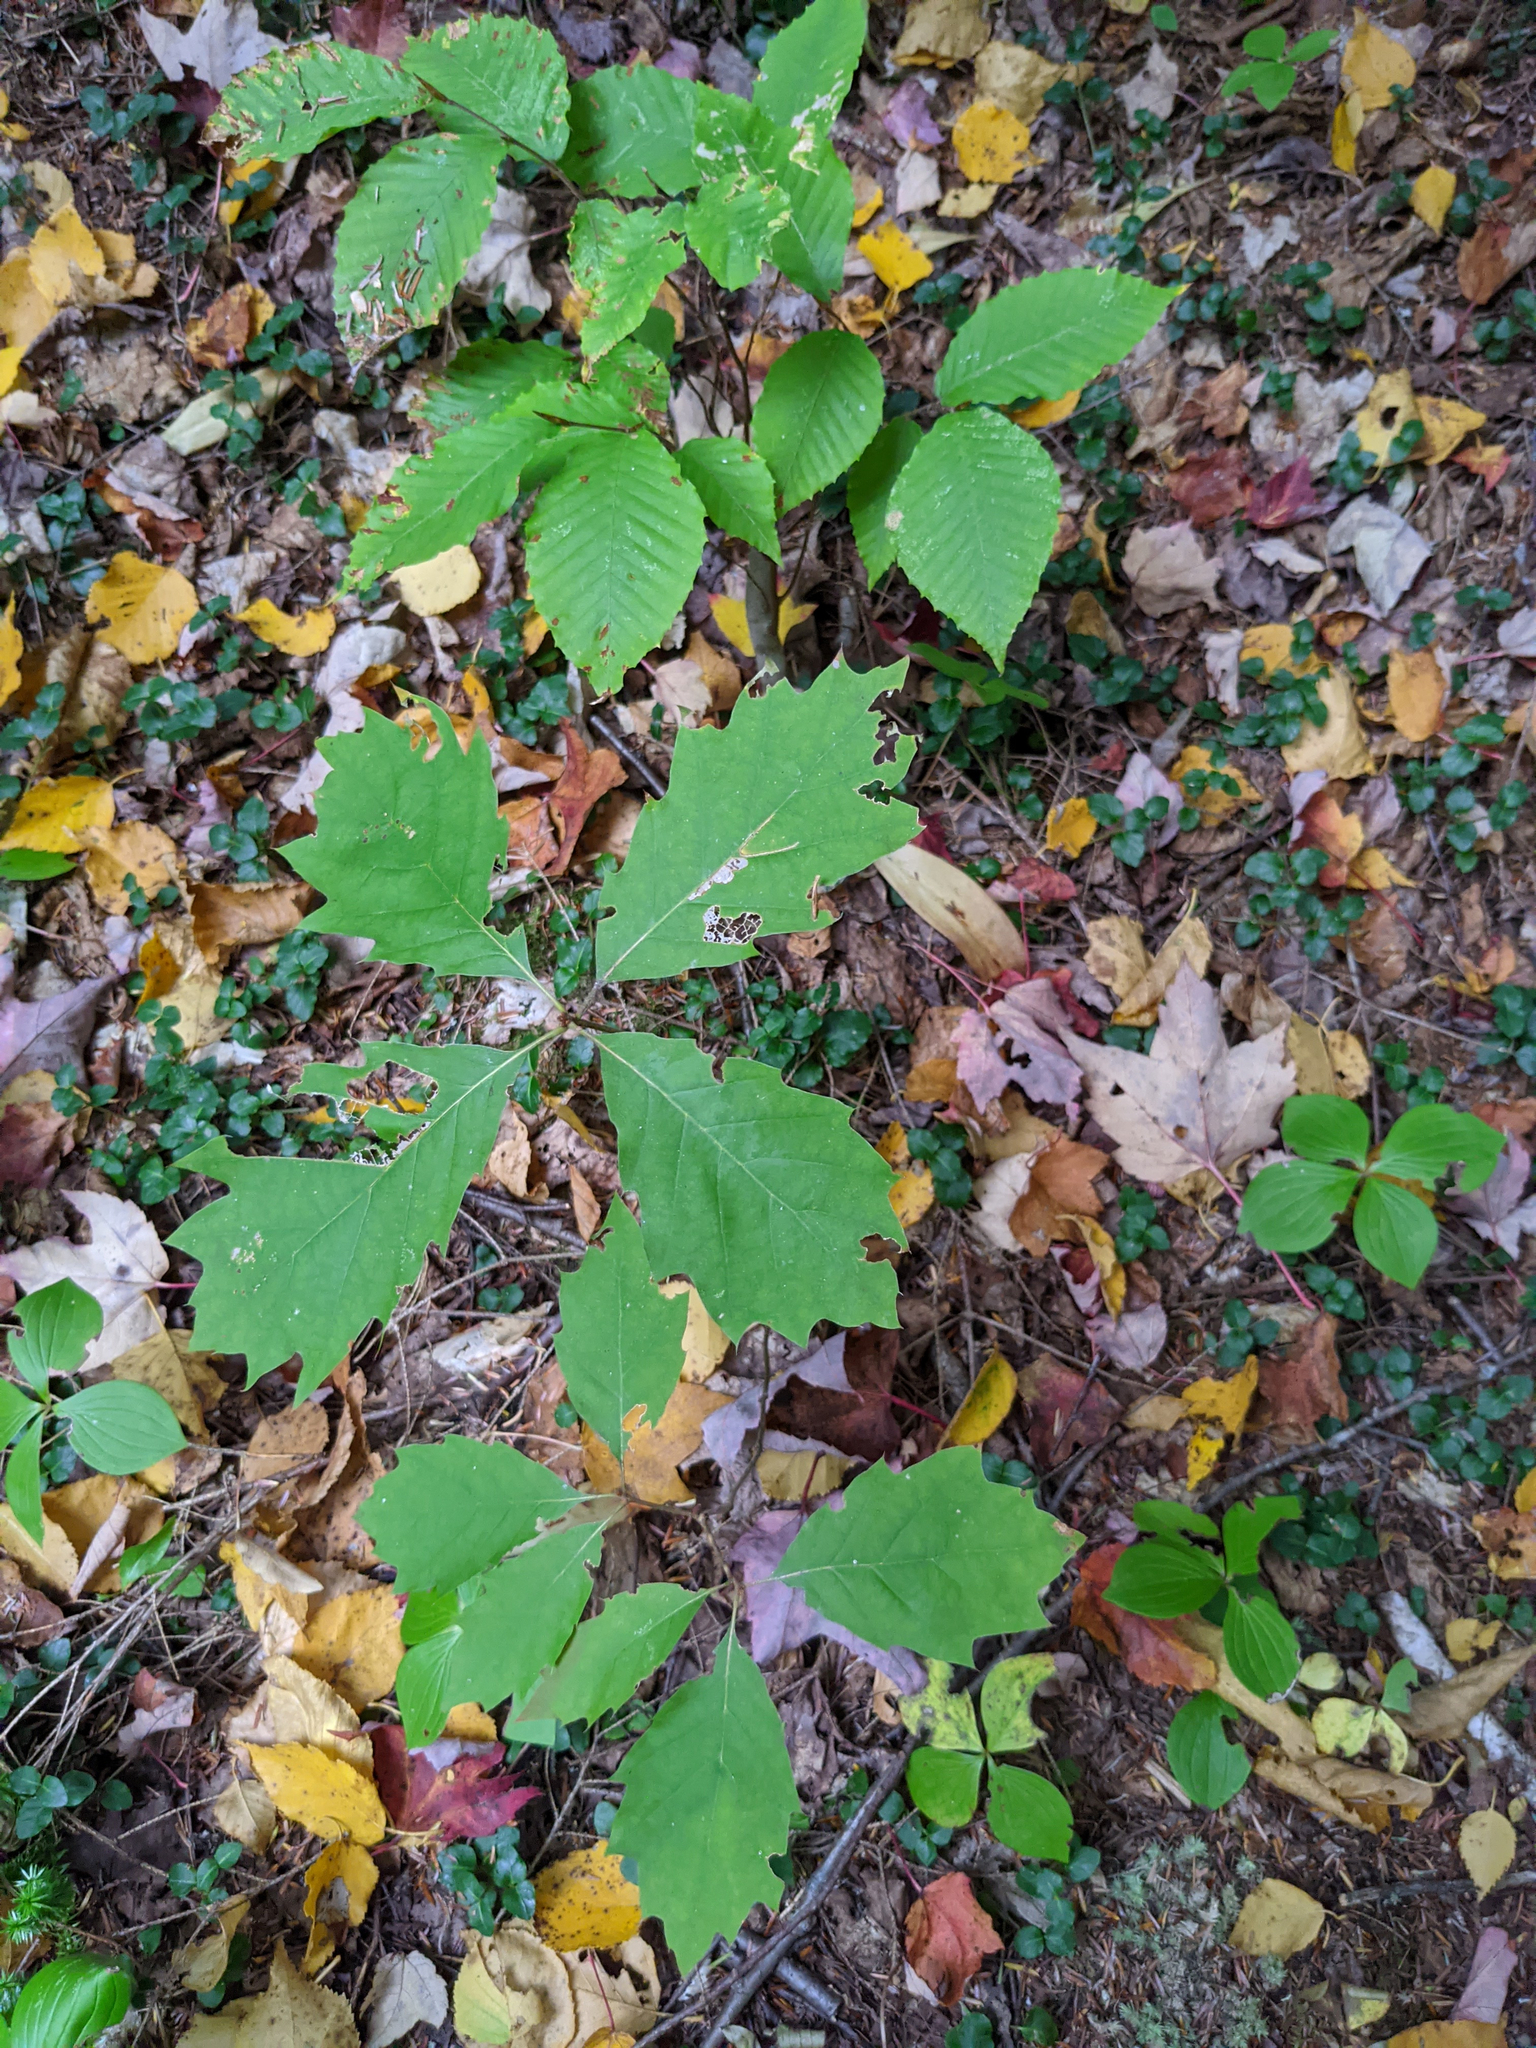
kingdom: Plantae
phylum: Tracheophyta
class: Magnoliopsida
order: Fagales
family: Fagaceae
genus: Fagus
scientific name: Fagus grandifolia
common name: American beech
